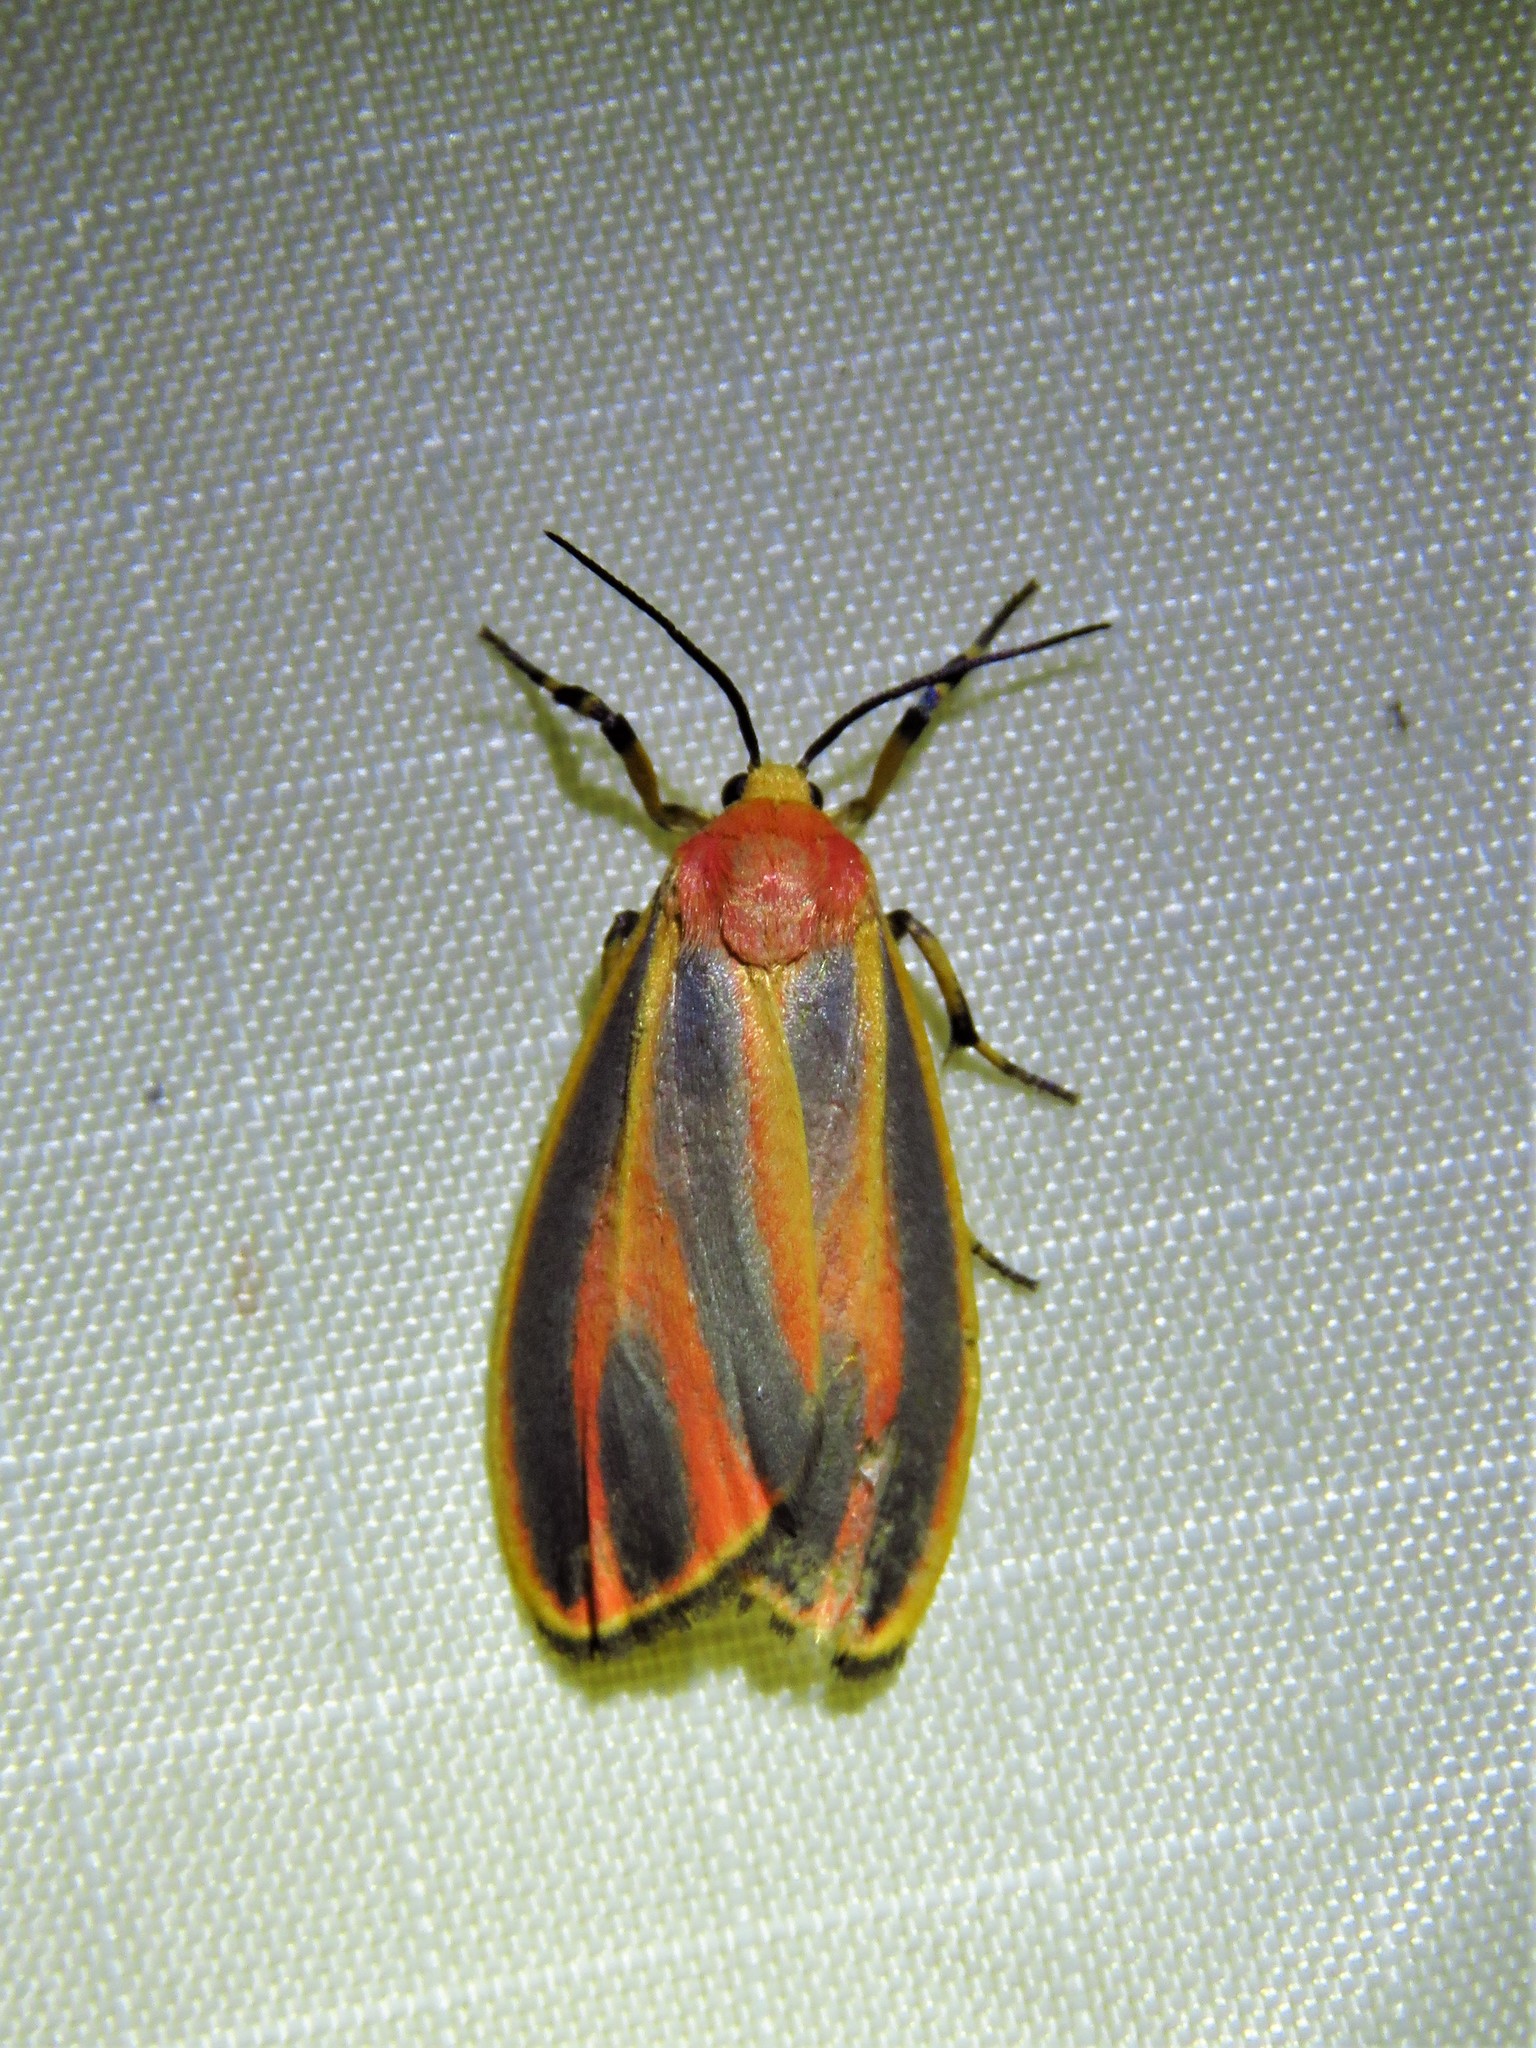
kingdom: Animalia
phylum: Arthropoda
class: Insecta
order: Lepidoptera
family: Erebidae
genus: Hypoprepia
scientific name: Hypoprepia fucosa
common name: Painted lichen moth
